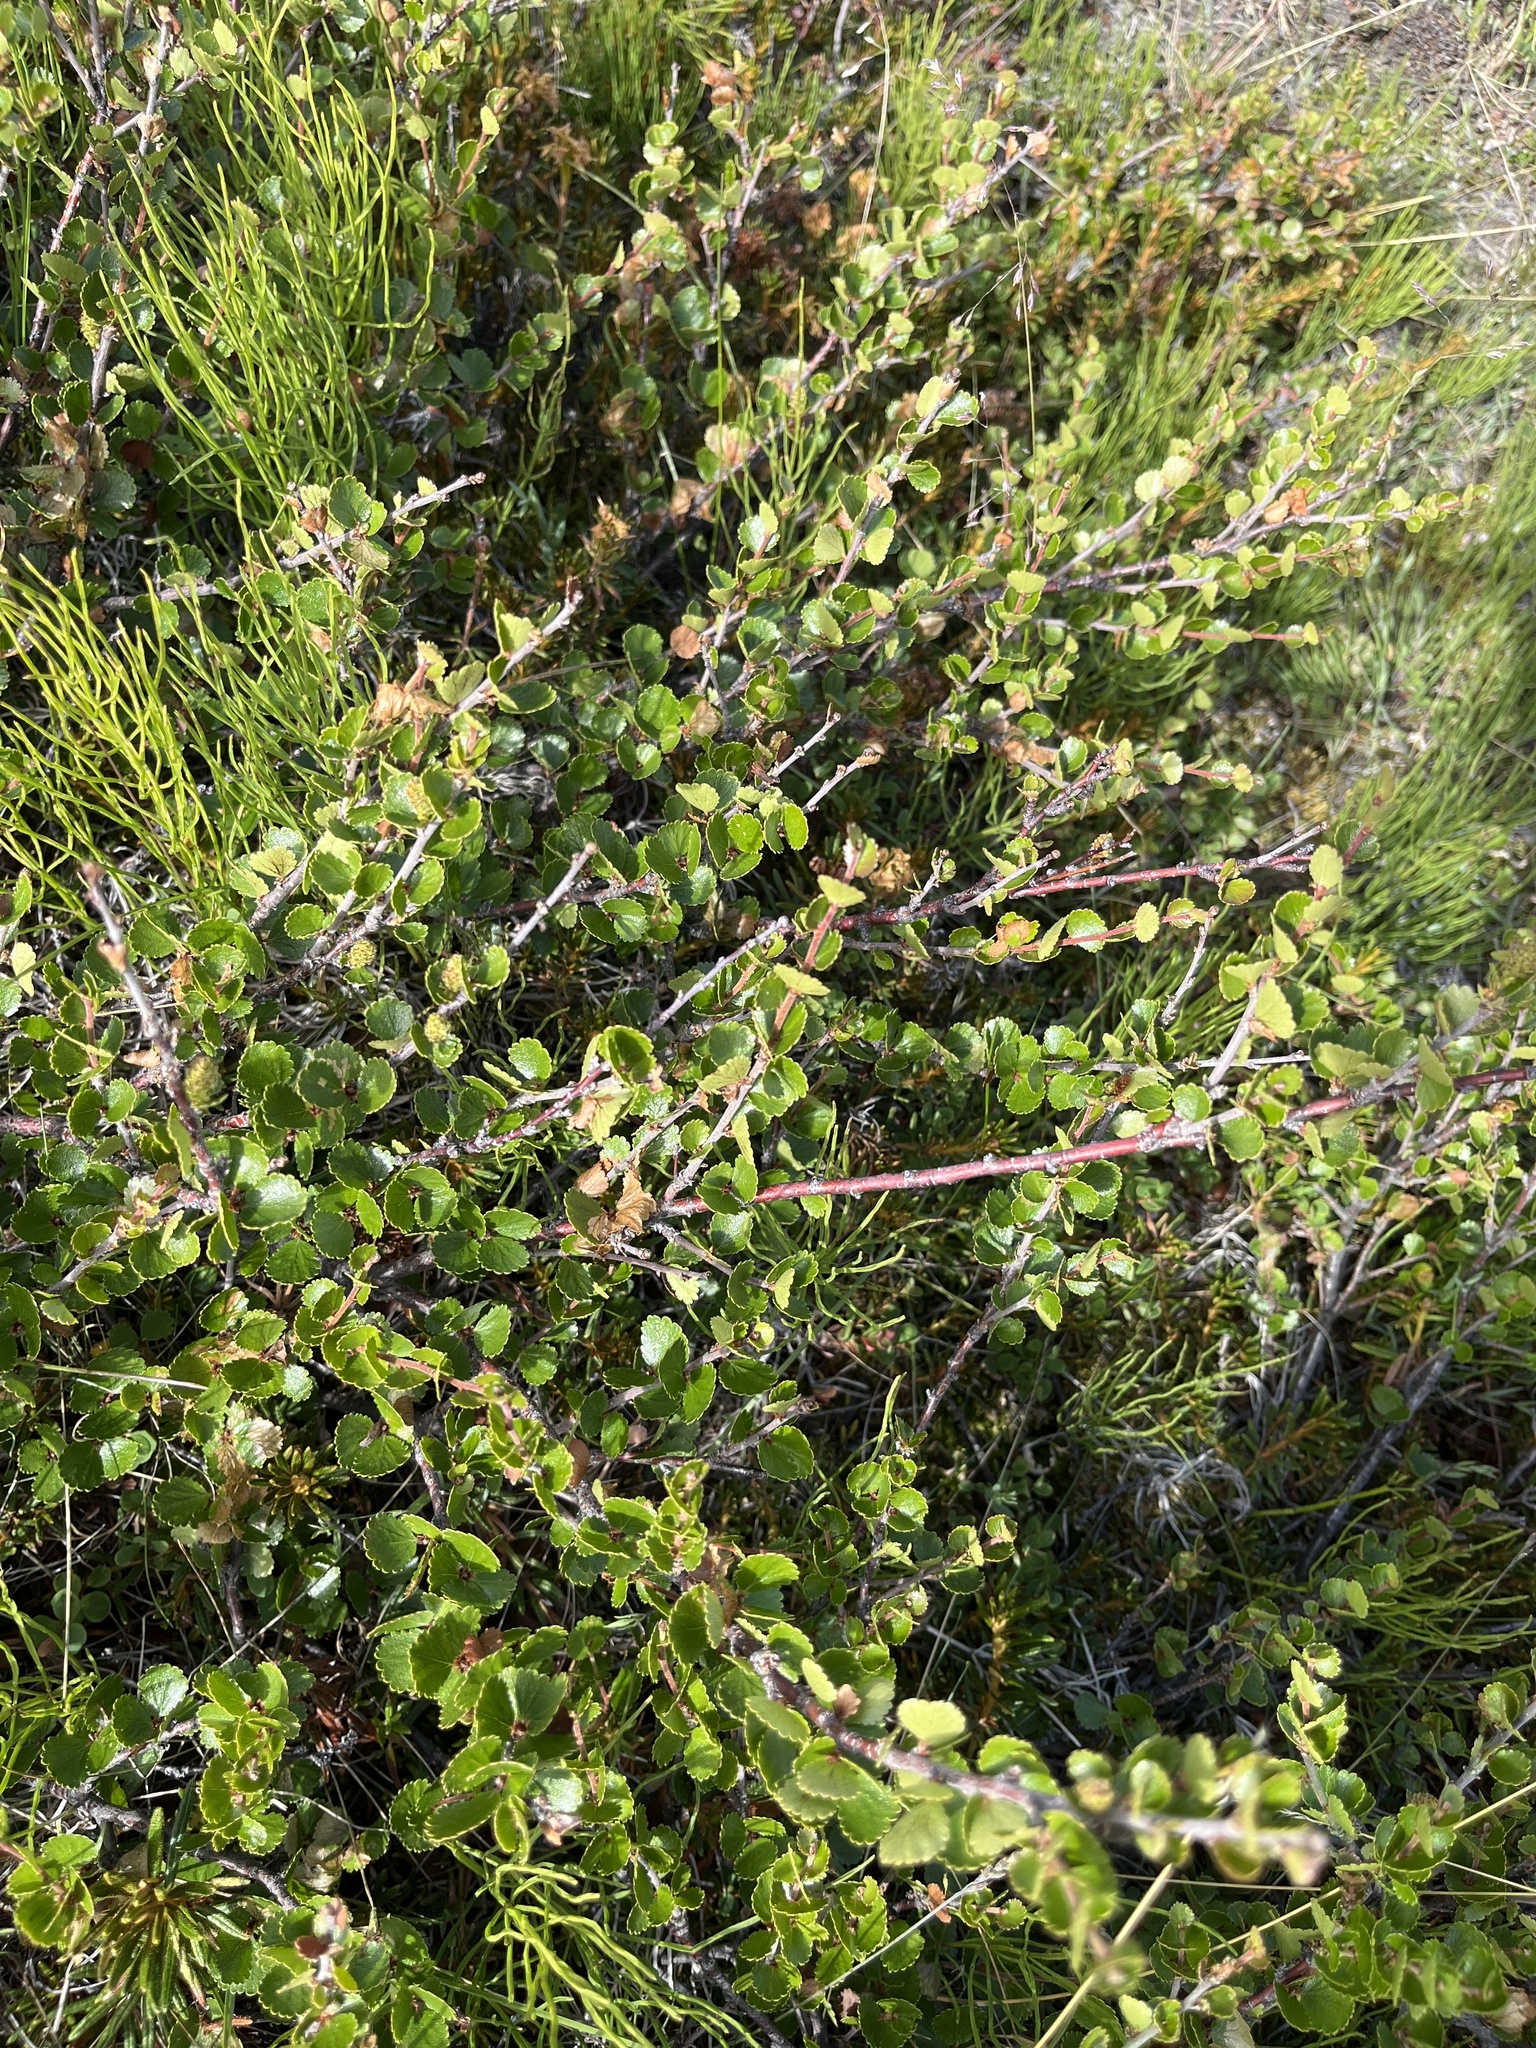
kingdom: Plantae
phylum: Tracheophyta
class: Magnoliopsida
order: Fagales
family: Betulaceae
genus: Betula
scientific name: Betula nana
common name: Arctic dwarf birch
